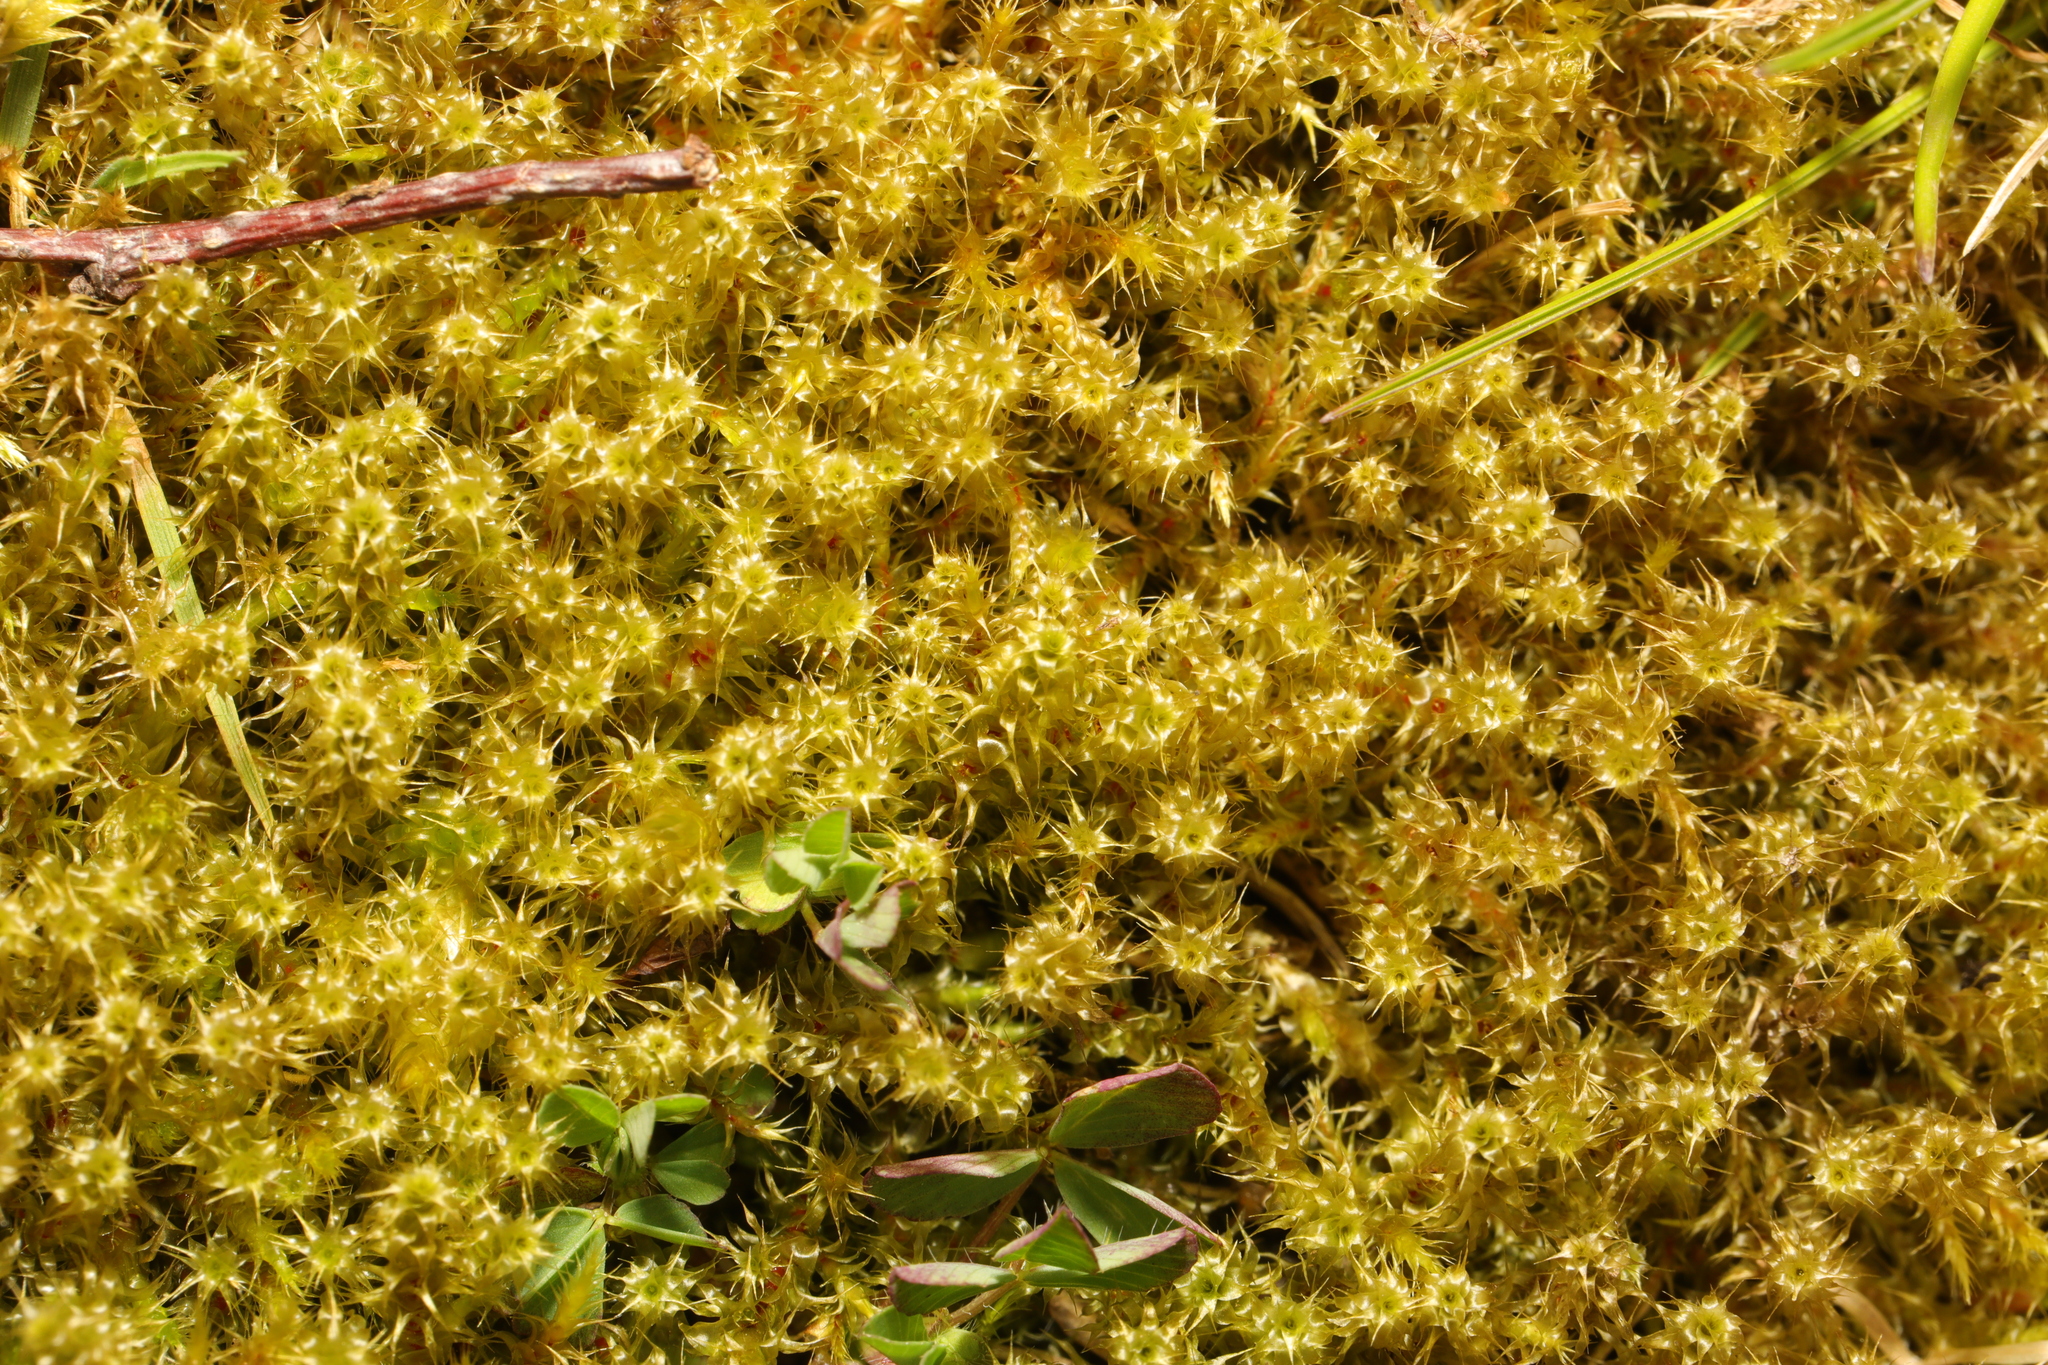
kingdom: Plantae
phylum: Bryophyta
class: Bryopsida
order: Hypnales
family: Hylocomiaceae
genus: Rhytidiadelphus
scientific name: Rhytidiadelphus squarrosus
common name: Springy turf-moss
